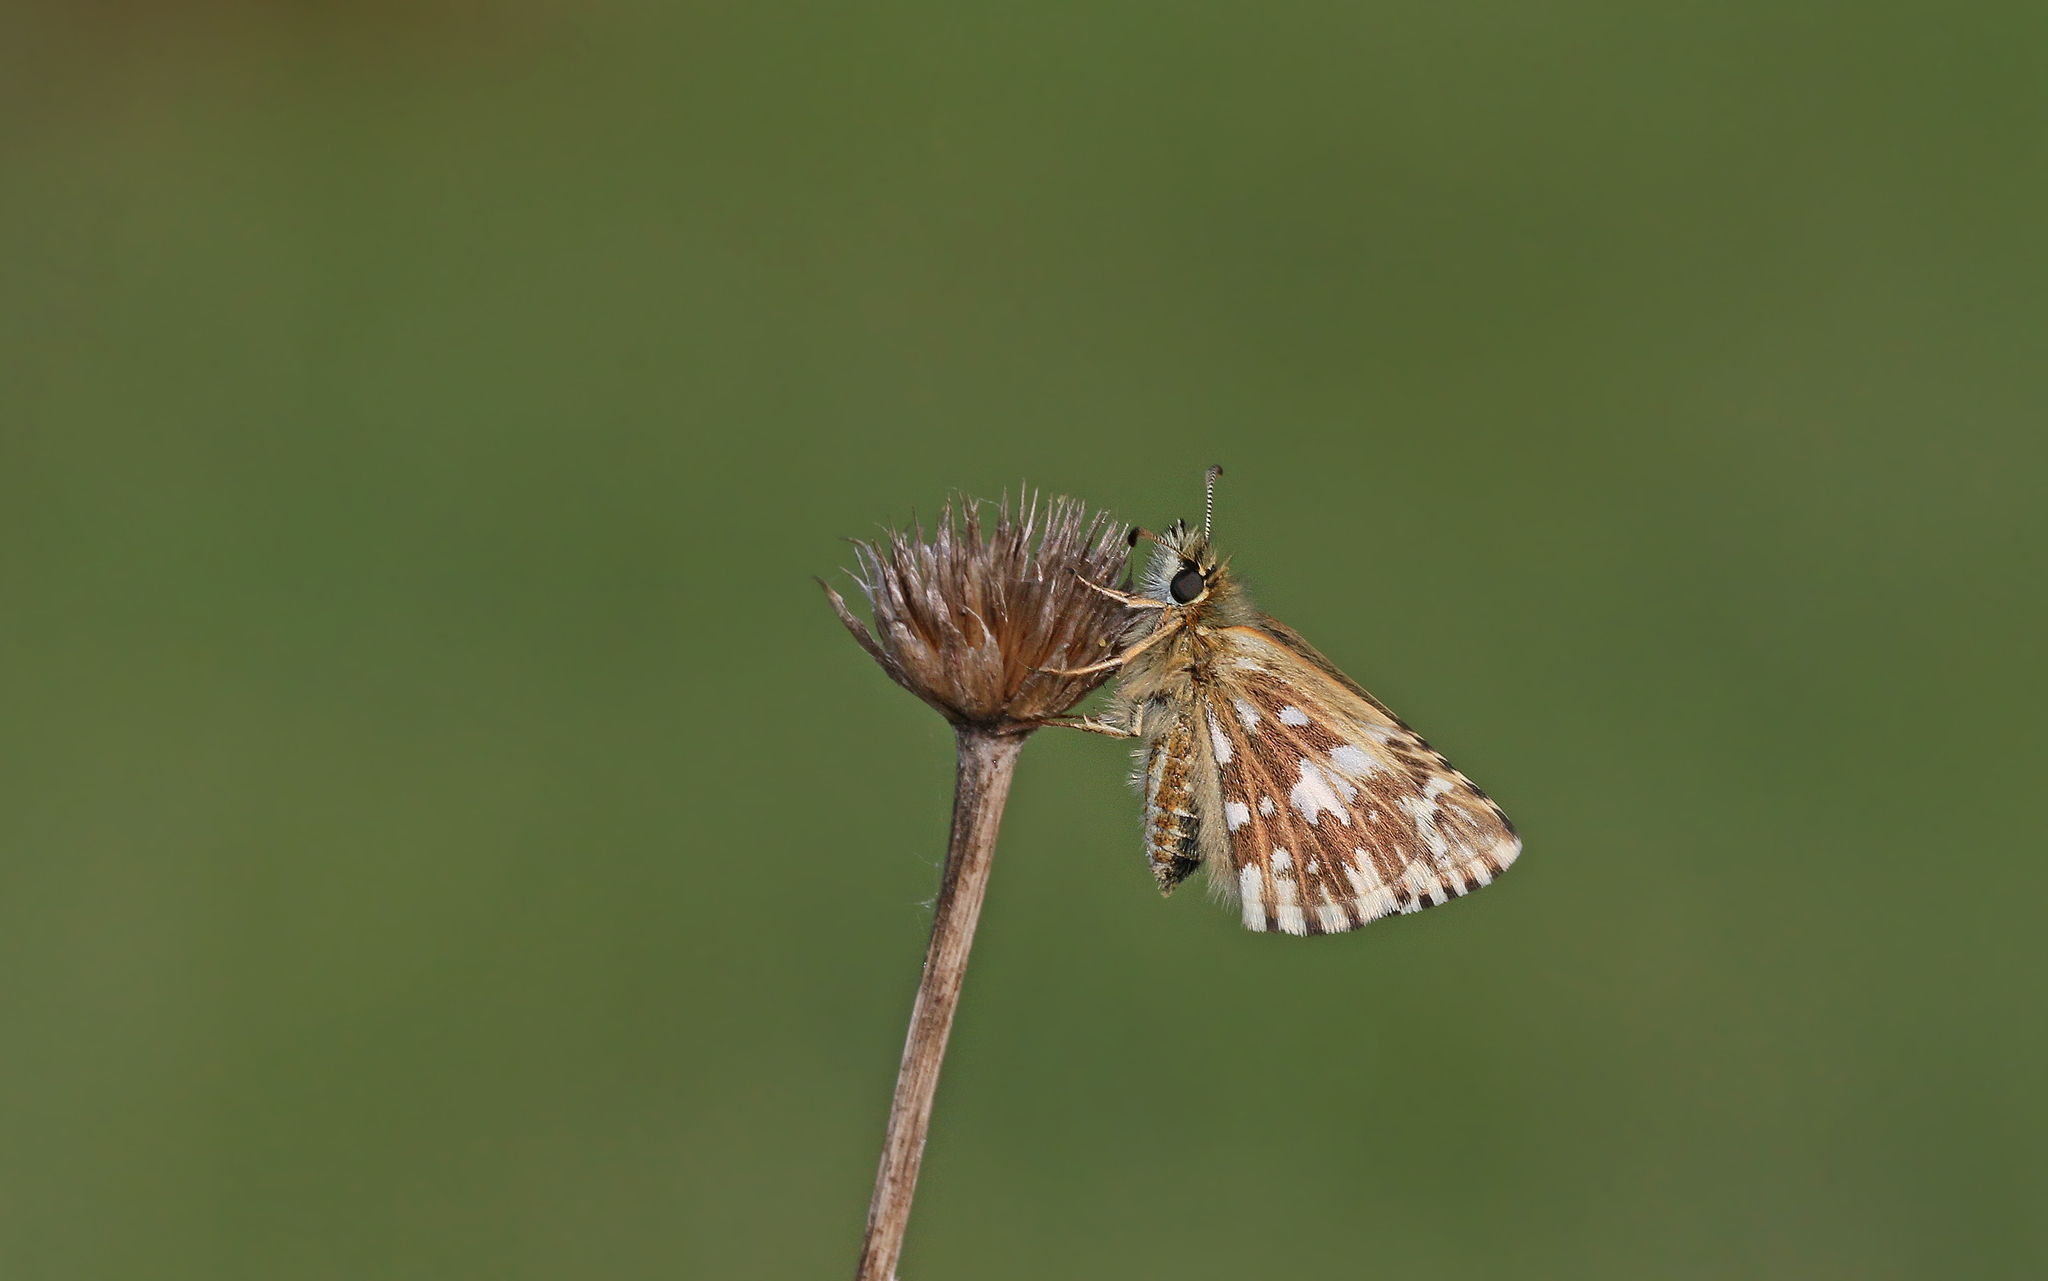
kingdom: Animalia
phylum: Arthropoda
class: Insecta
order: Lepidoptera
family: Hesperiidae
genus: Pyrgus
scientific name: Pyrgus malvae
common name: Grizzled skipper
